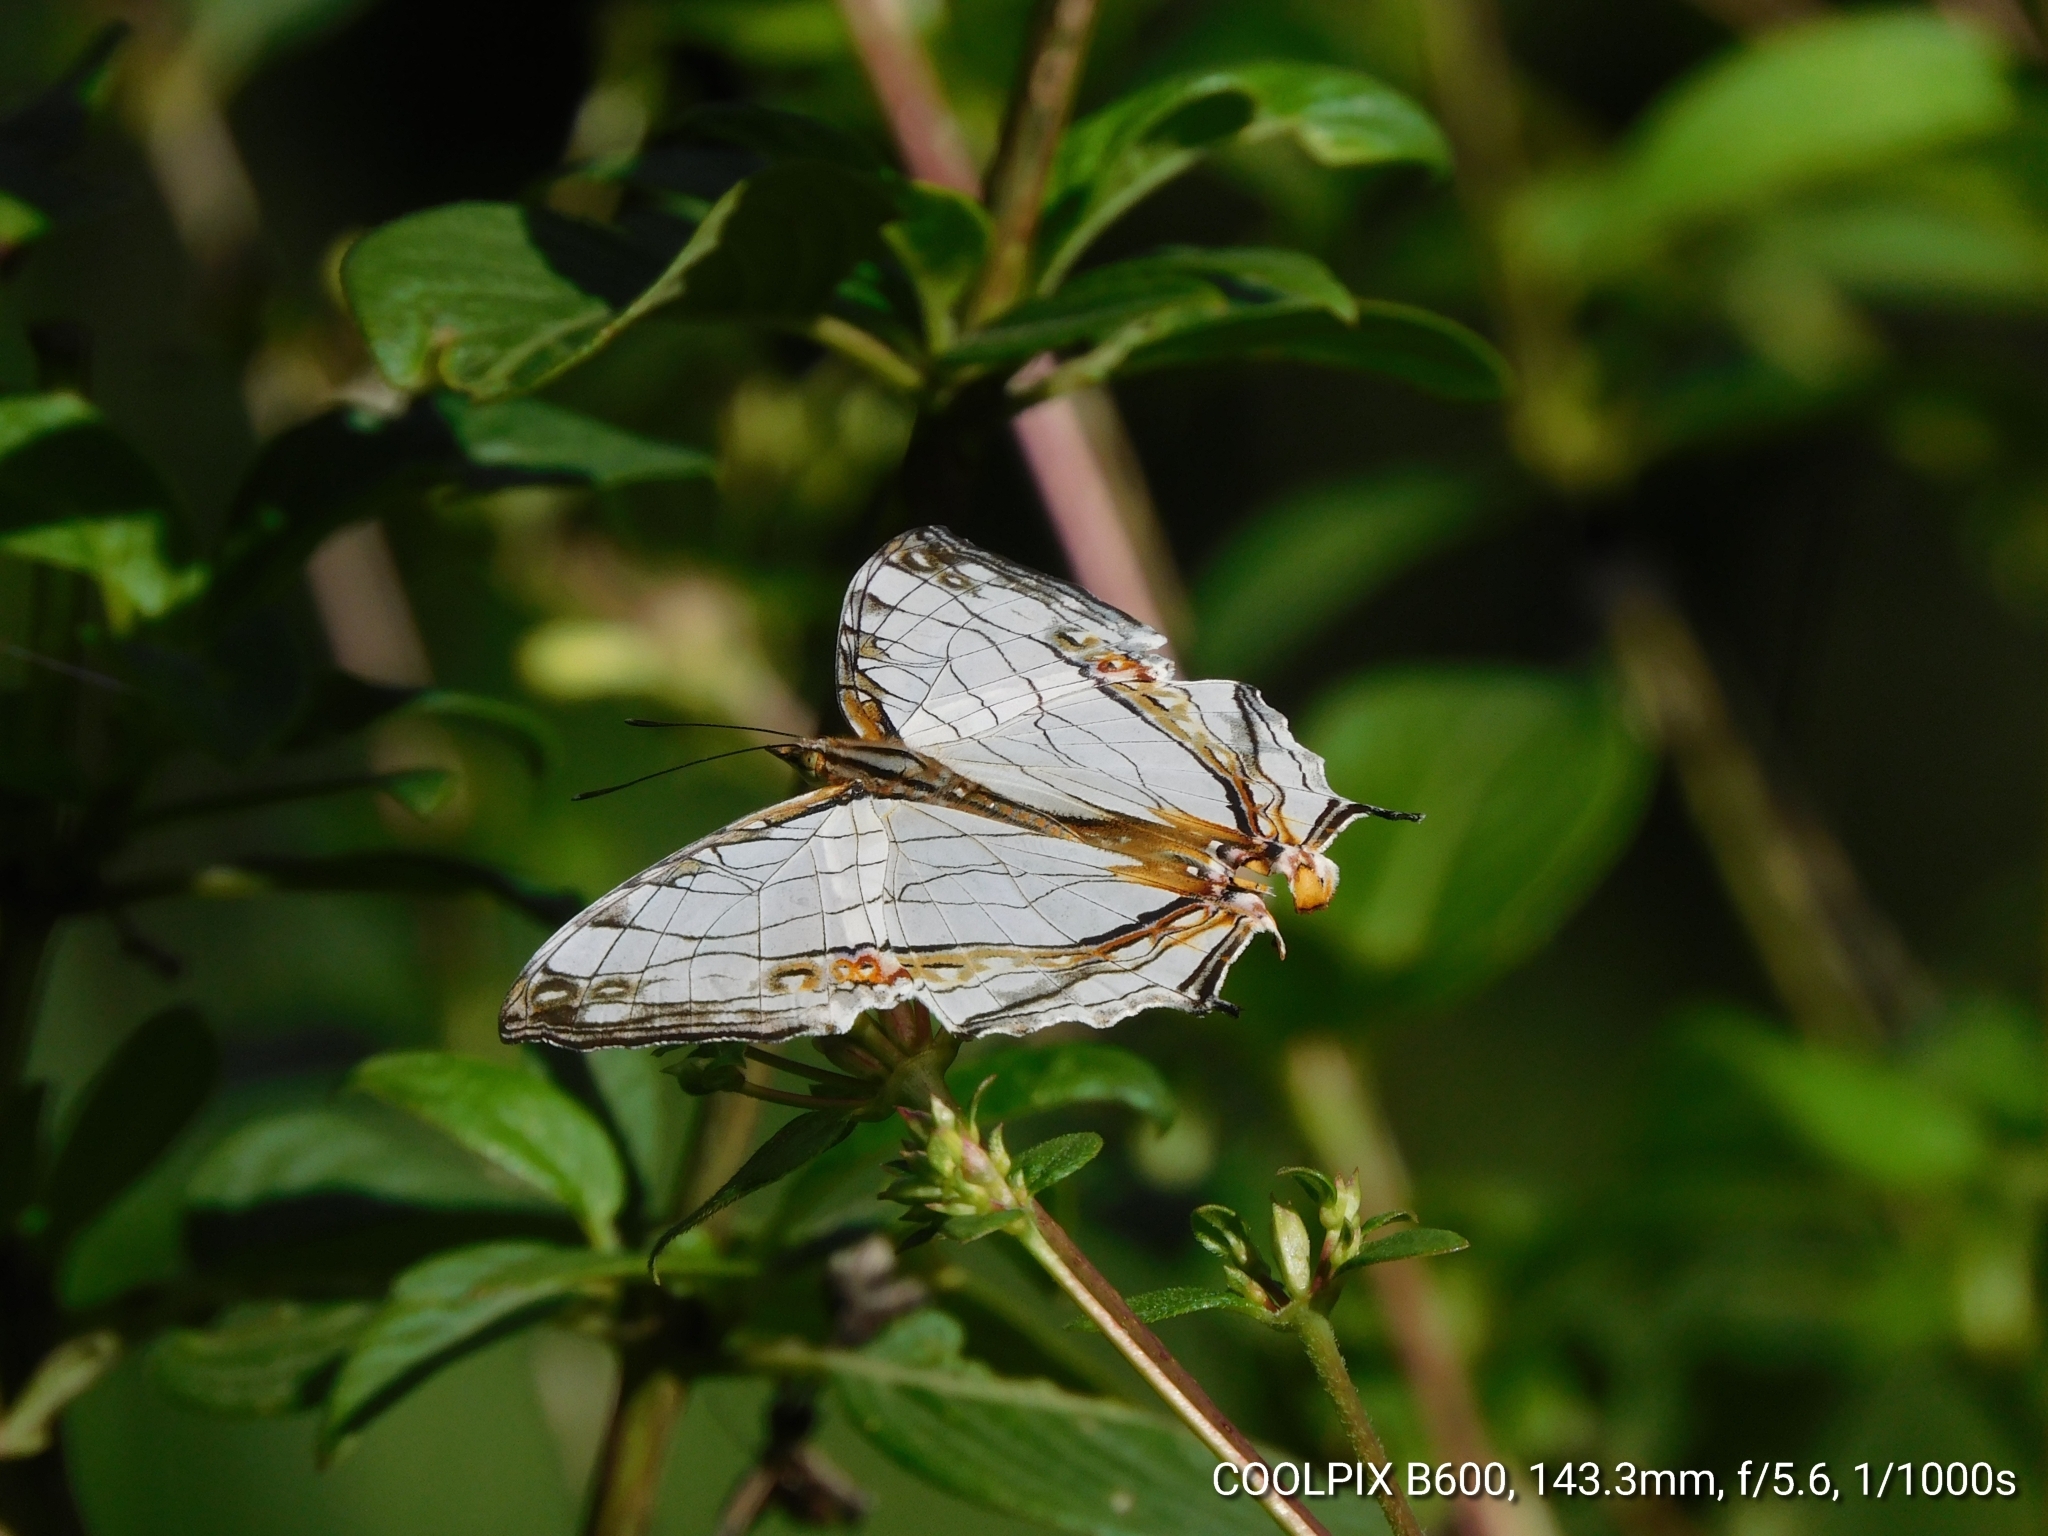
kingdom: Animalia
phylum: Arthropoda
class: Insecta
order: Lepidoptera
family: Nymphalidae
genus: Cyrestis
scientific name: Cyrestis thyodamas
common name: Common mapwing
